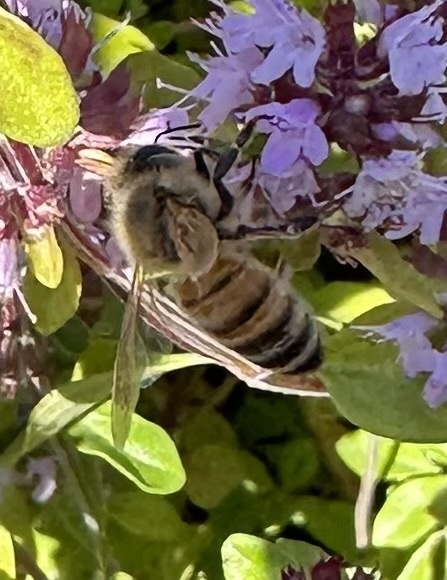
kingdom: Animalia
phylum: Arthropoda
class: Insecta
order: Hymenoptera
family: Apidae
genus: Apis
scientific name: Apis mellifera
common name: Honey bee
